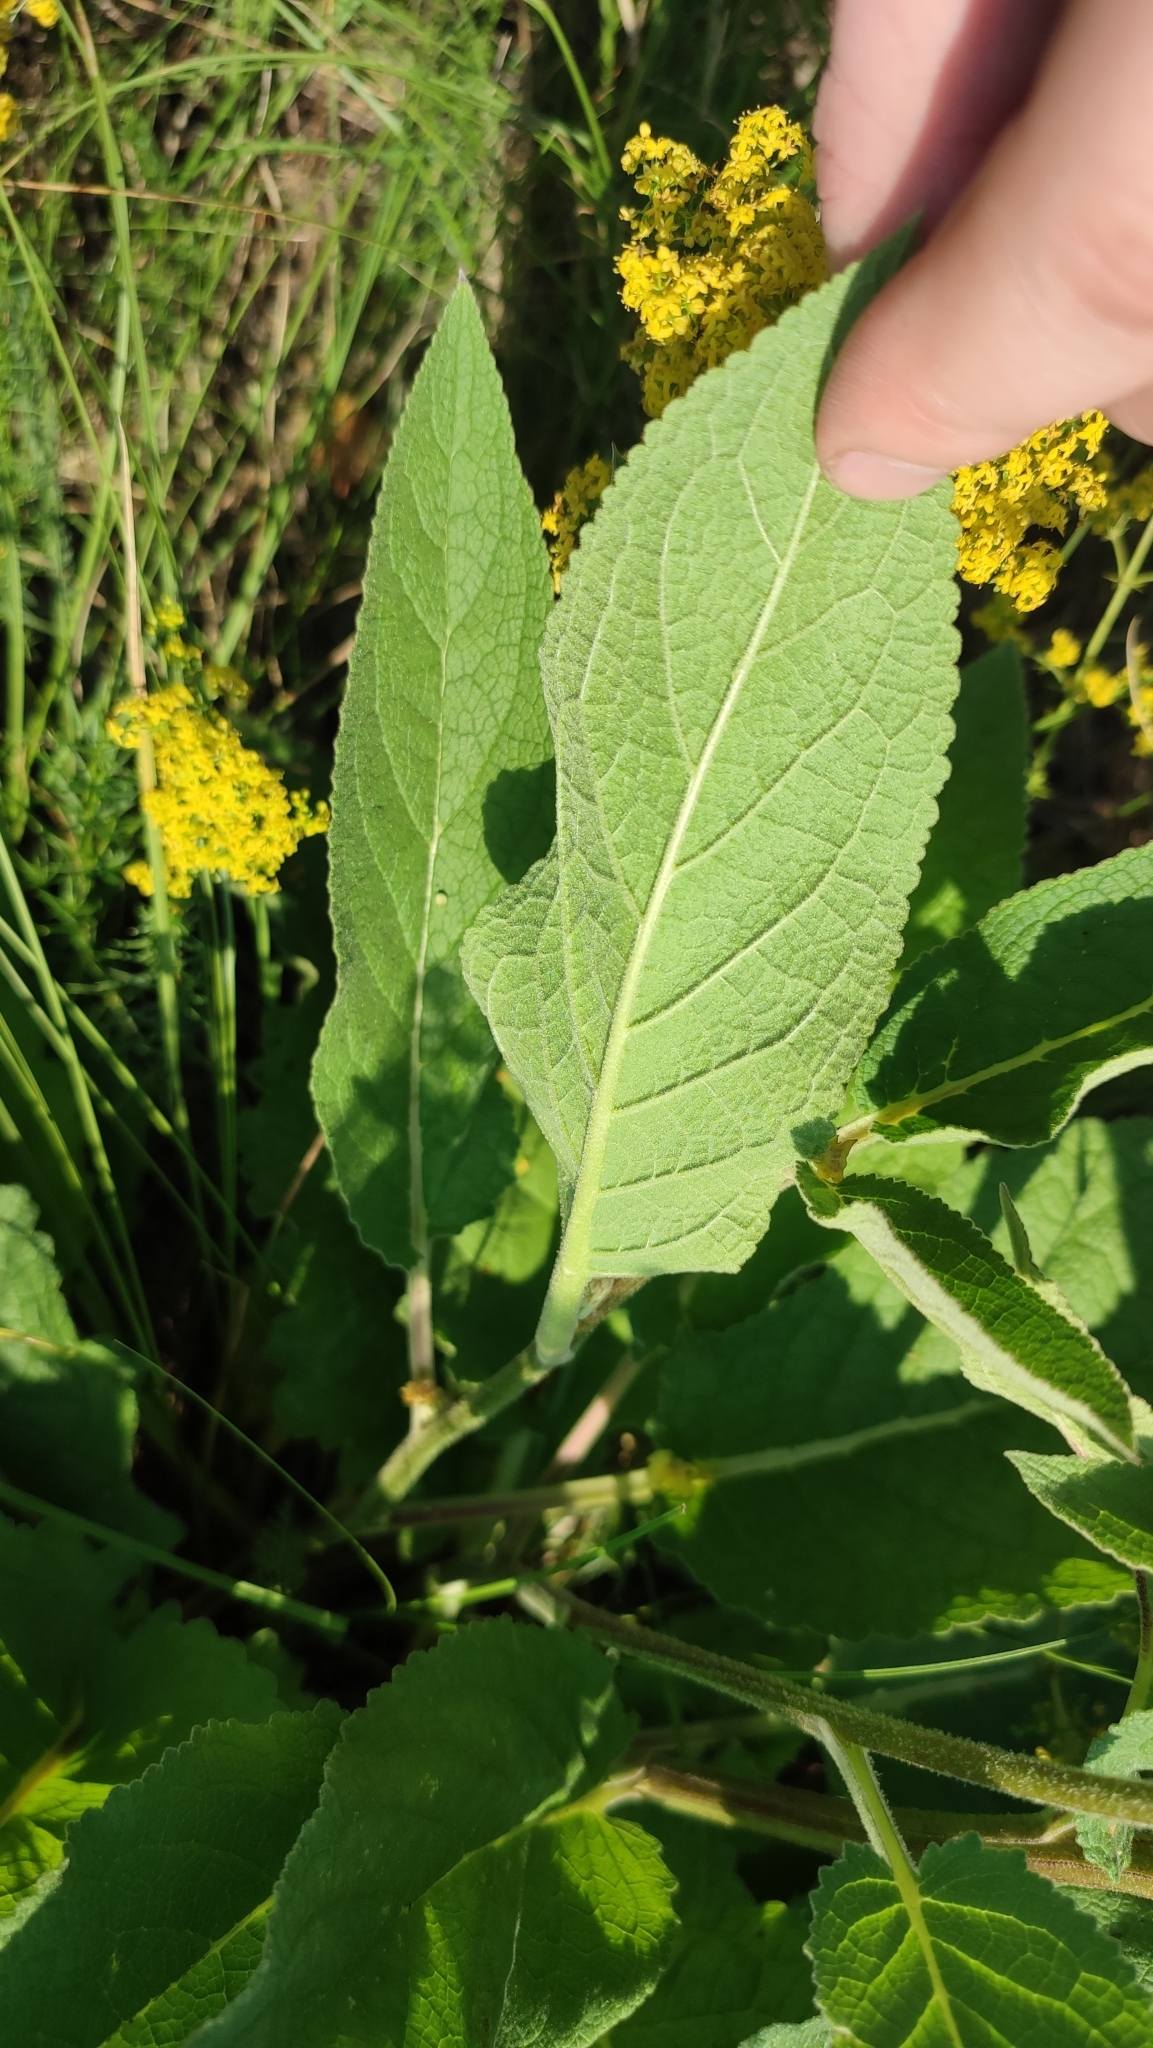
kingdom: Plantae
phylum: Tracheophyta
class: Magnoliopsida
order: Lamiales
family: Scrophulariaceae
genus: Verbascum
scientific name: Verbascum nigrum
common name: Dark mullein
